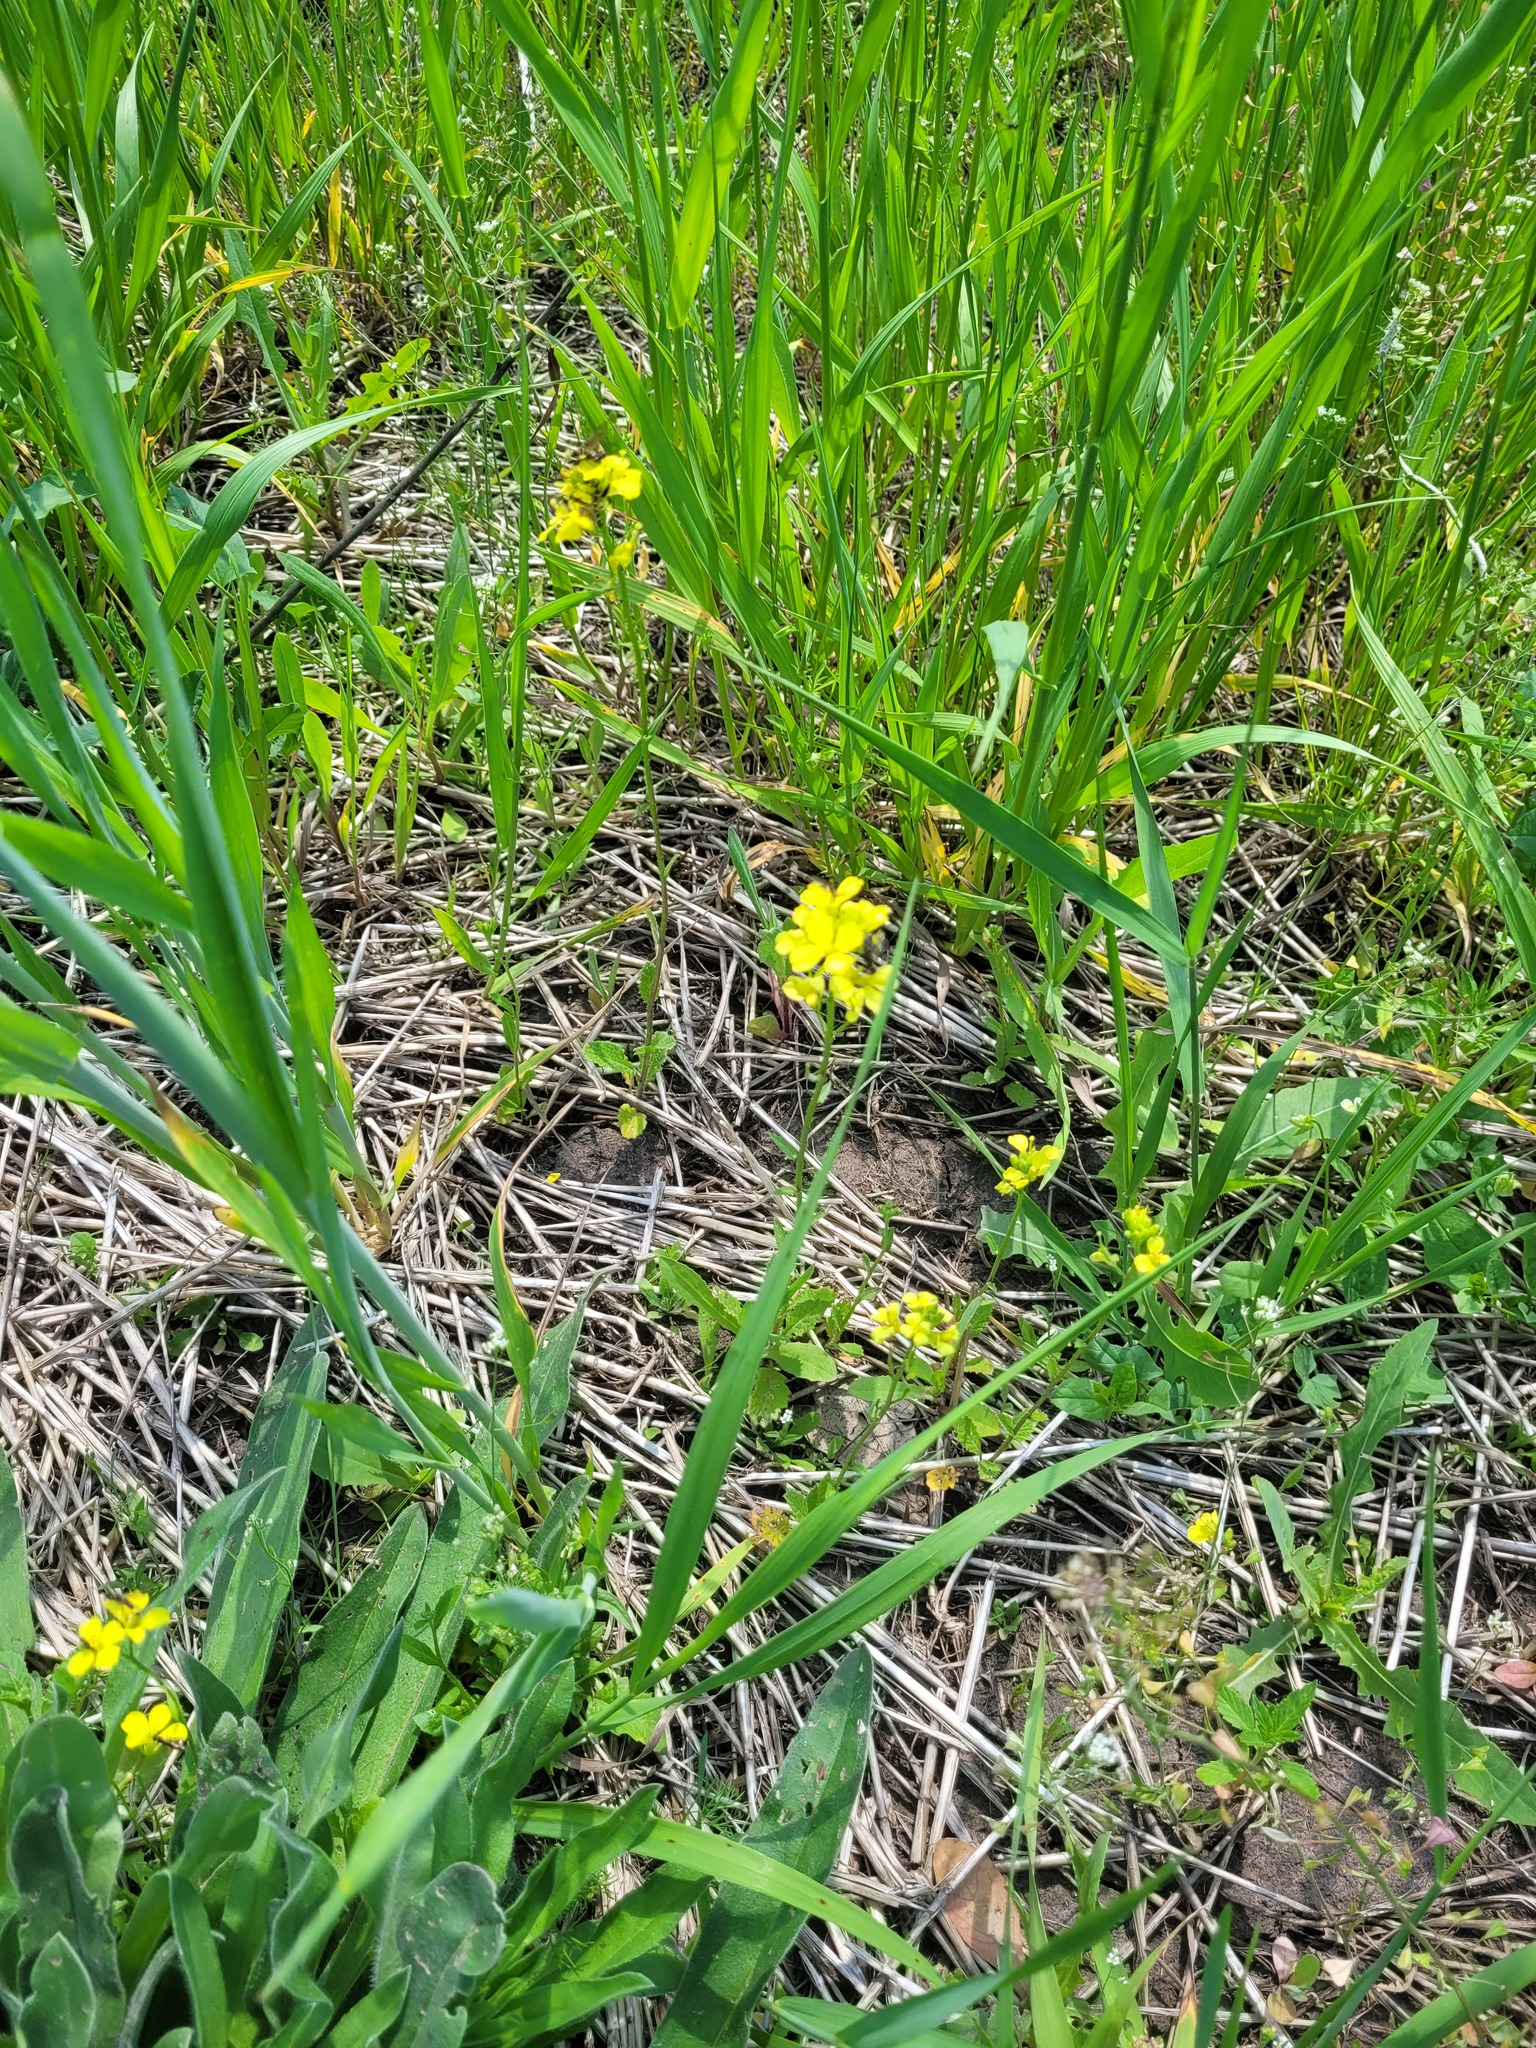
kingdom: Plantae
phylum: Tracheophyta
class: Magnoliopsida
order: Brassicales
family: Brassicaceae
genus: Sinapis
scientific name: Sinapis arvensis
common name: Charlock
